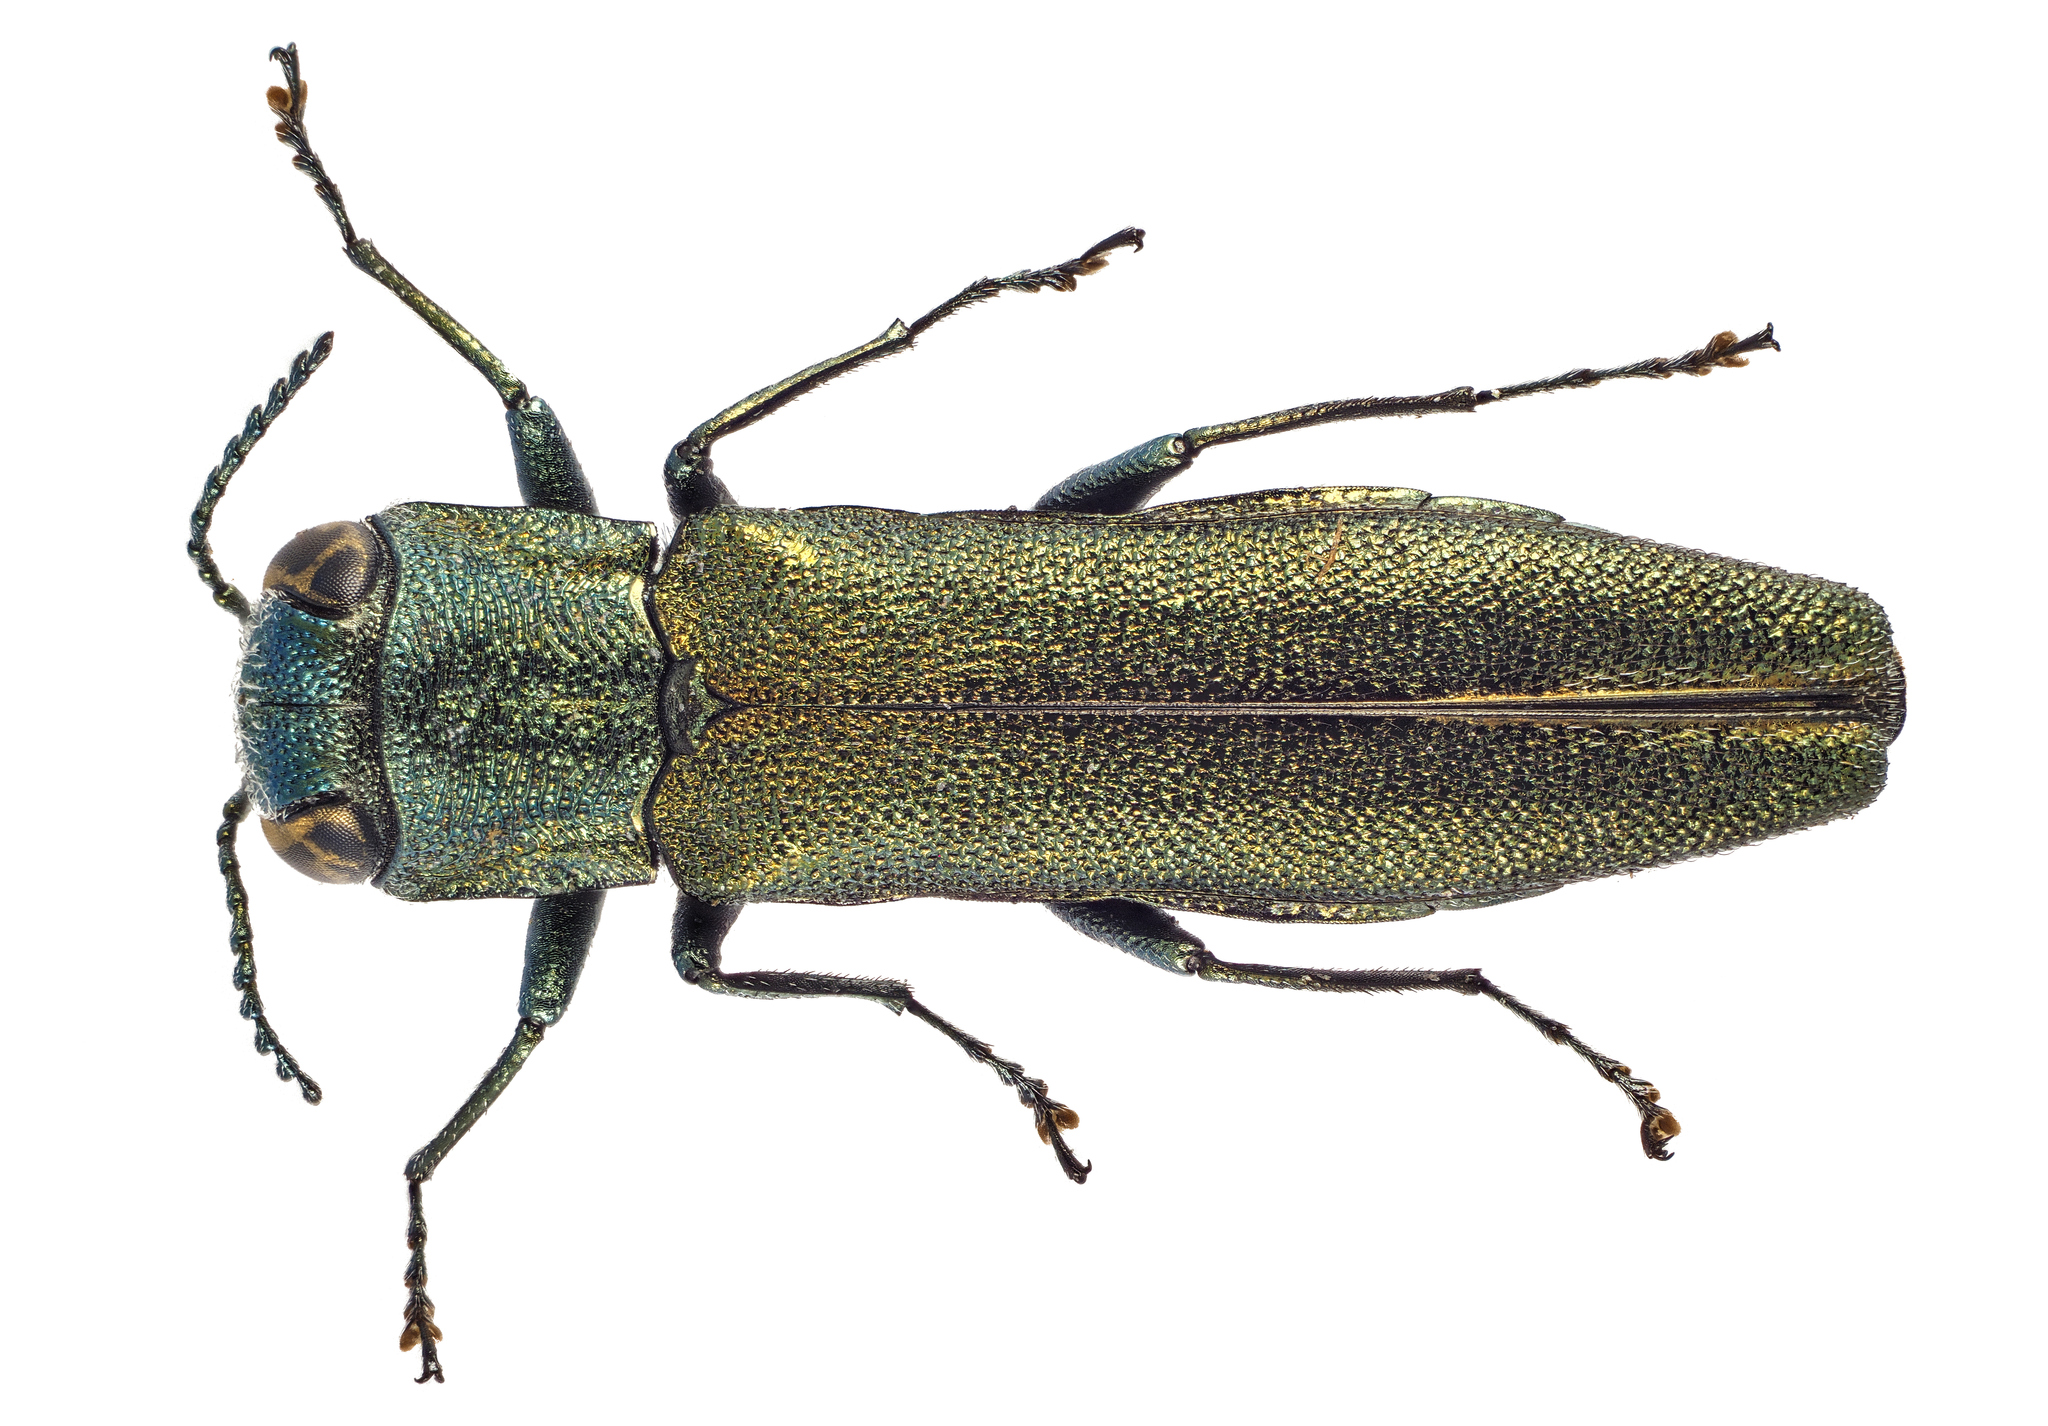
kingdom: Animalia
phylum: Arthropoda
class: Insecta
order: Coleoptera
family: Buprestidae
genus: Agrilus
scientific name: Agrilus angustulus
